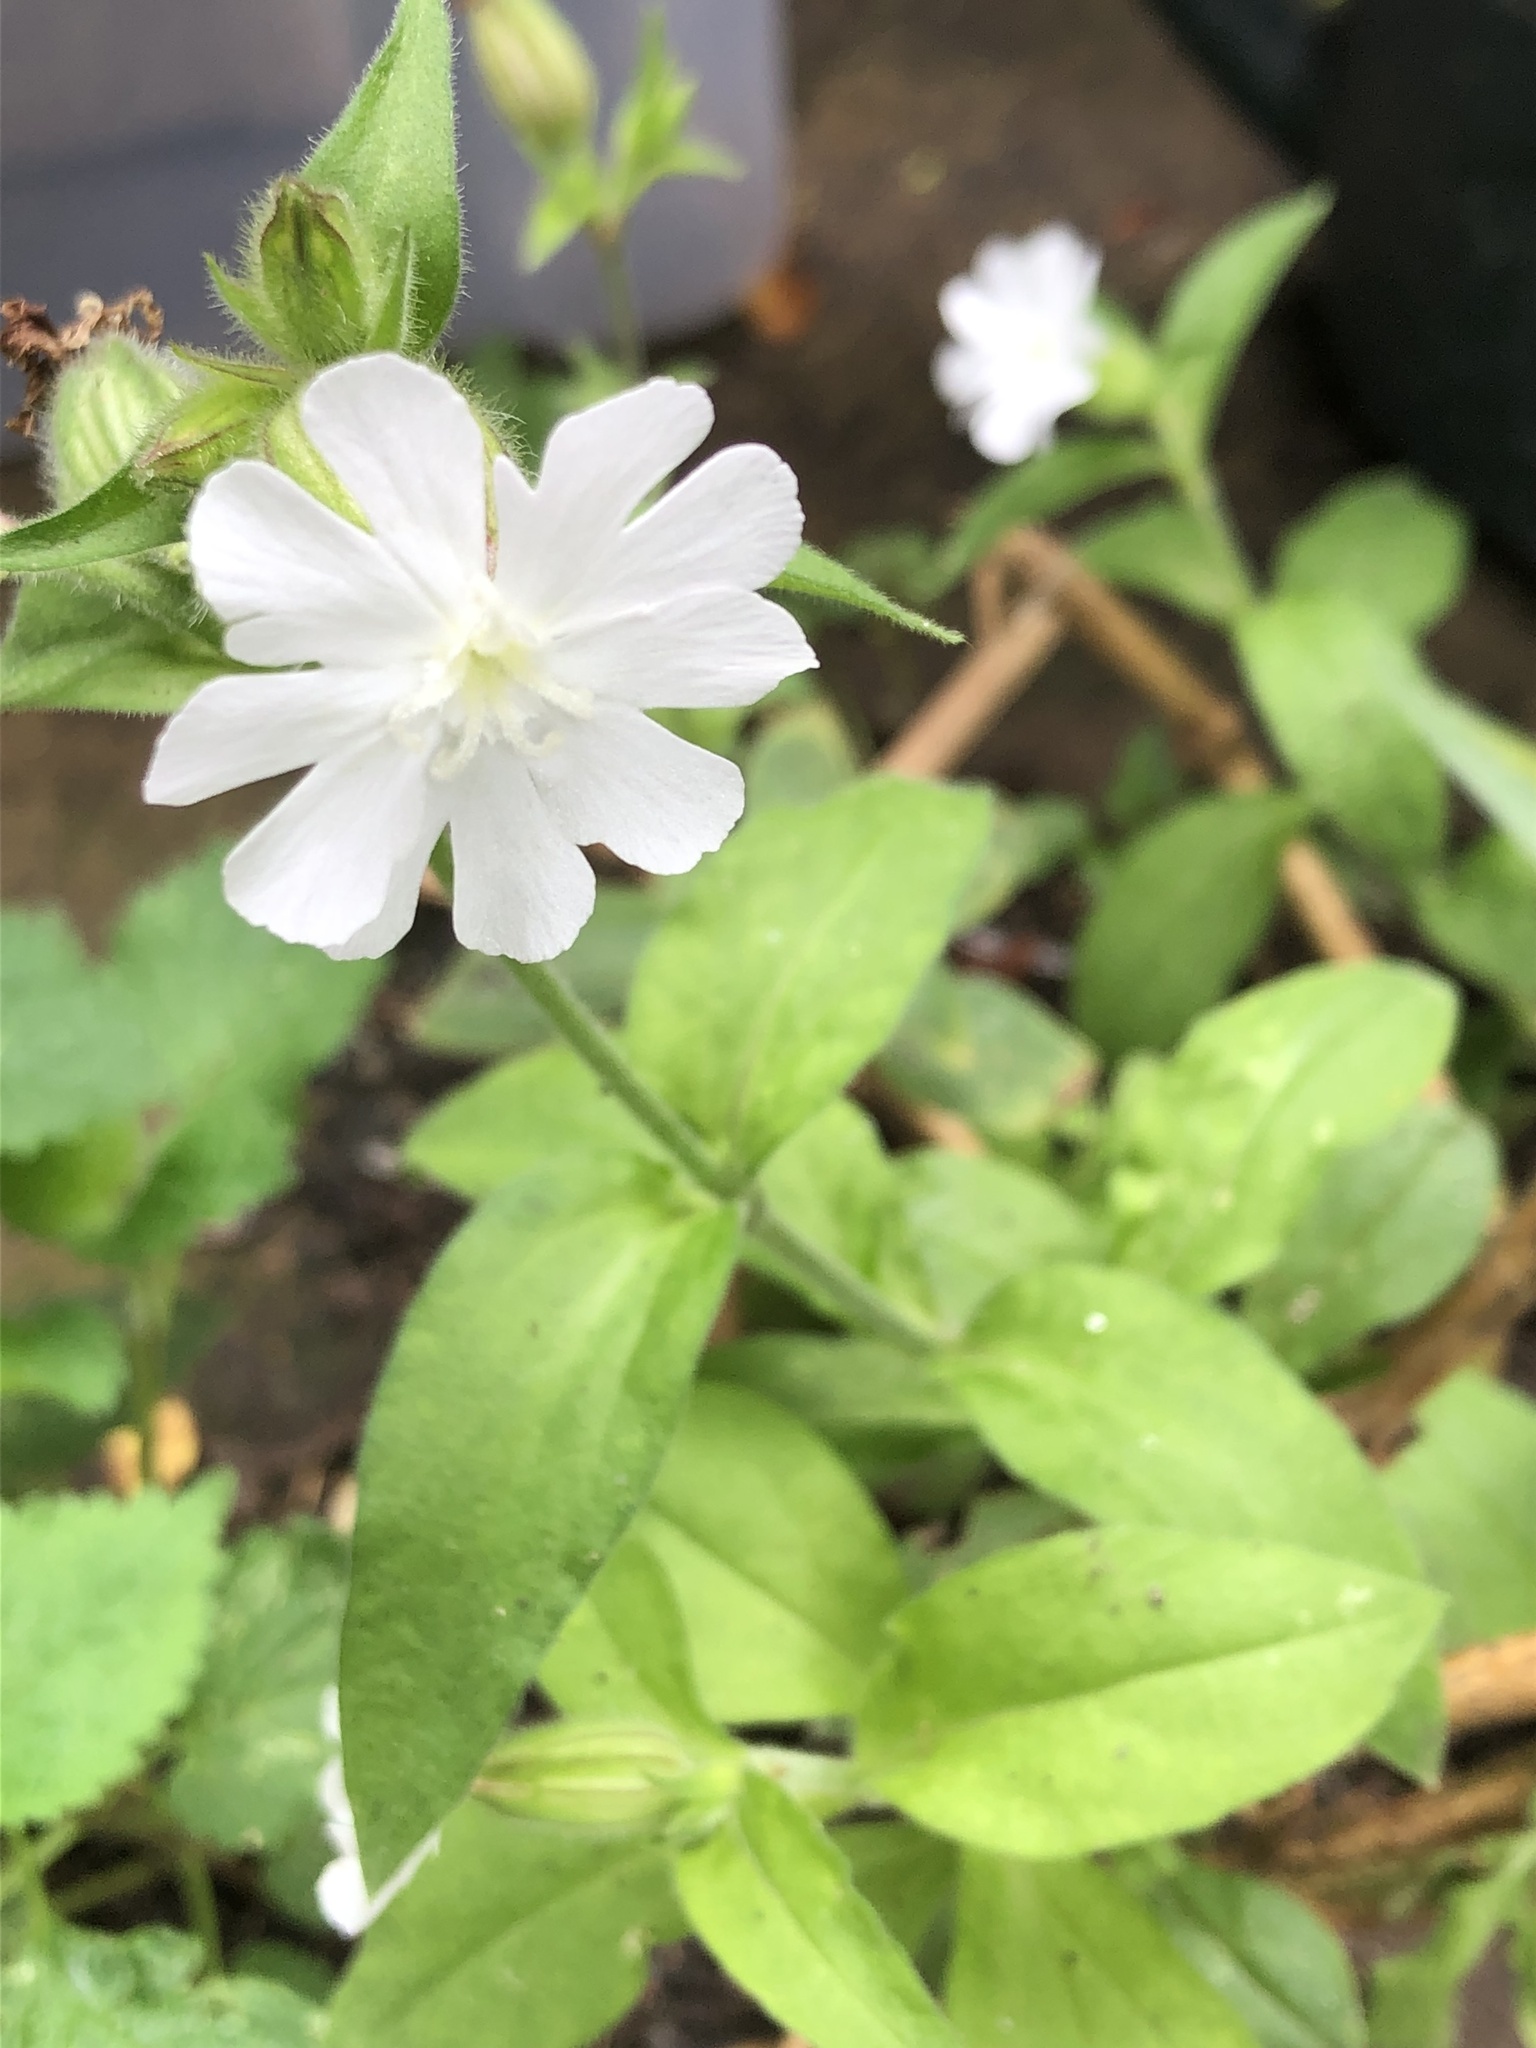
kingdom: Plantae
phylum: Tracheophyta
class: Magnoliopsida
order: Caryophyllales
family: Caryophyllaceae
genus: Silene
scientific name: Silene latifolia
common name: White campion
